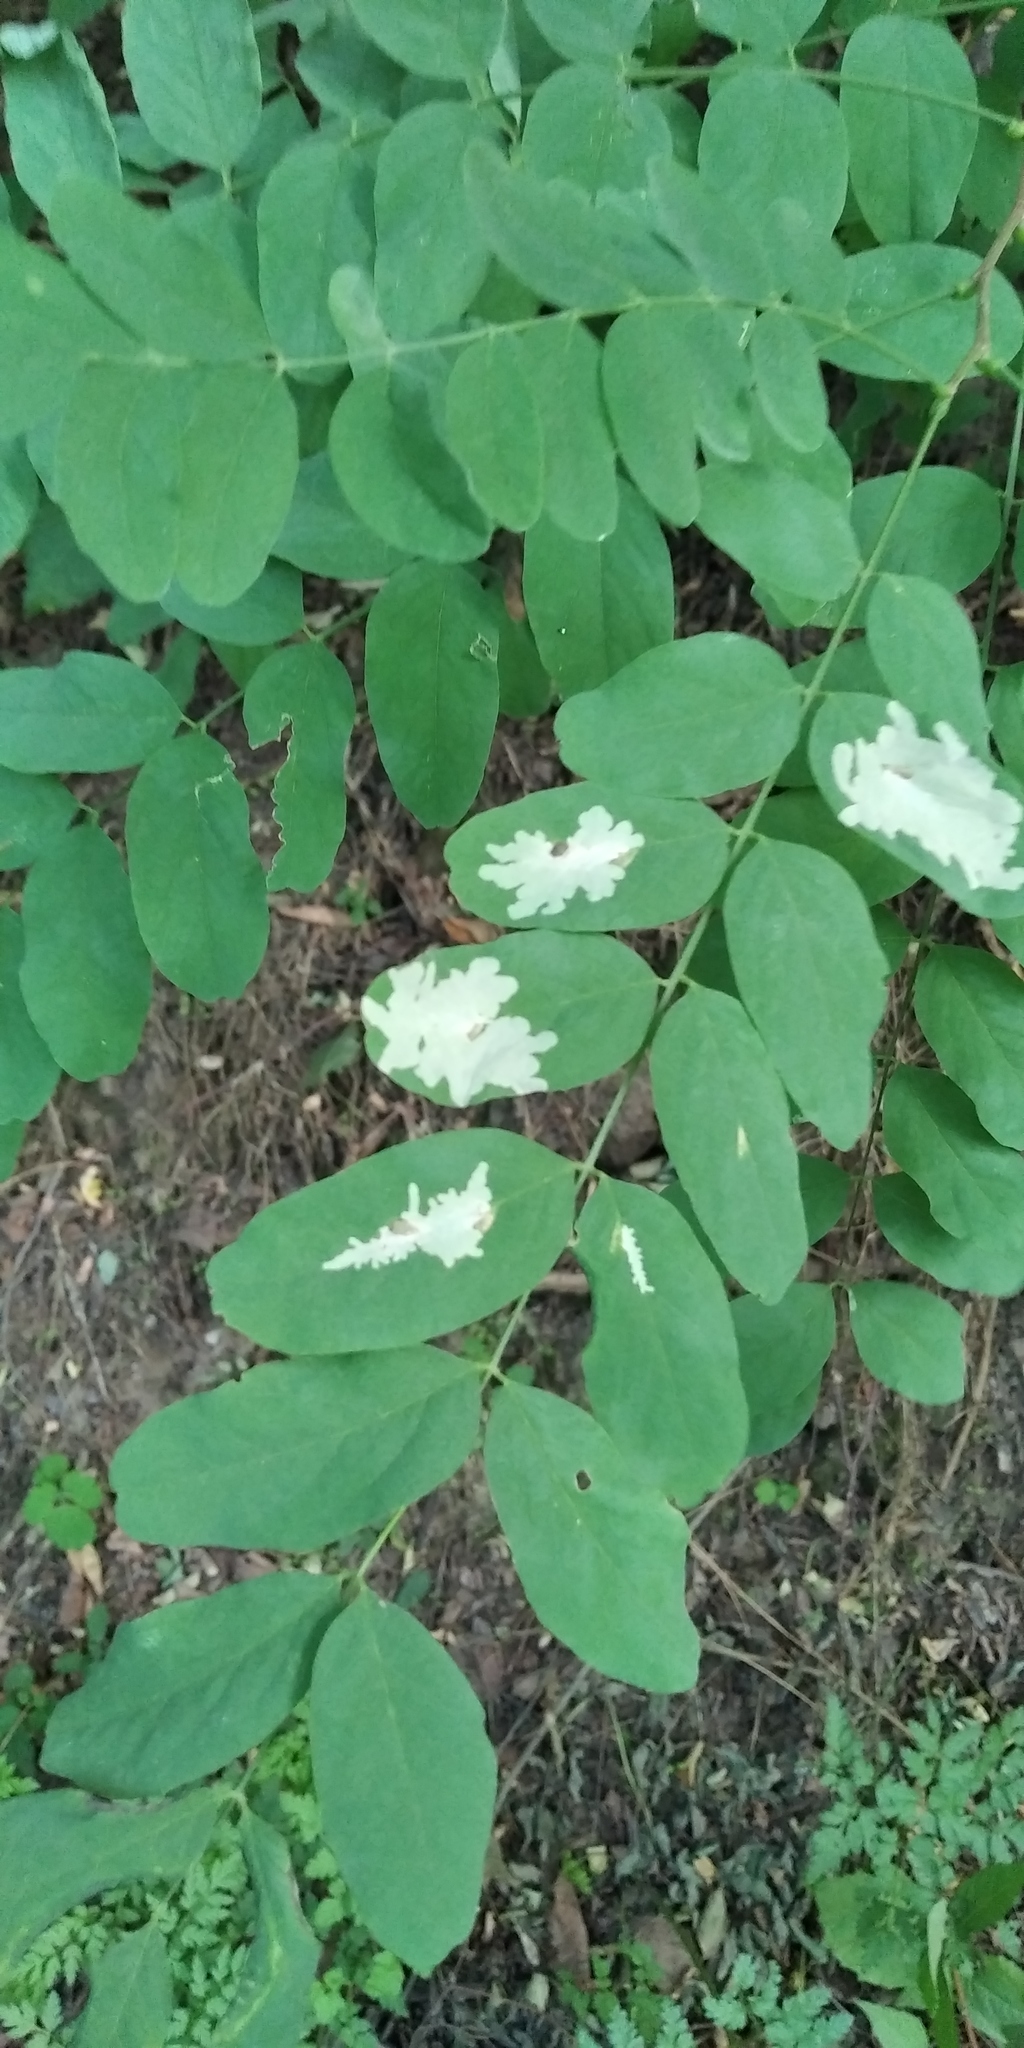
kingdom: Animalia
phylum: Arthropoda
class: Insecta
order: Lepidoptera
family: Gracillariidae
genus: Parectopa
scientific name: Parectopa robiniella
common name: Locust digitate leafminer
